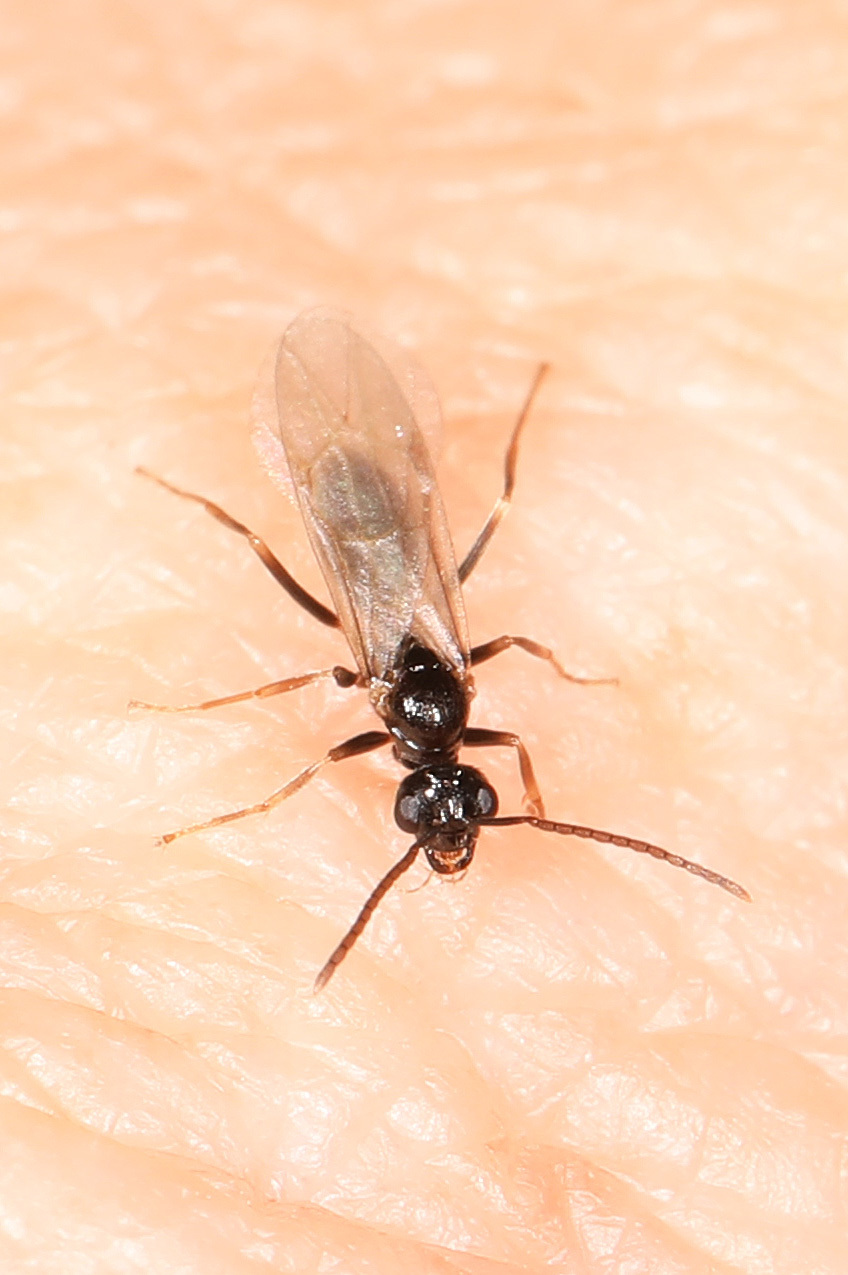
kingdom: Animalia
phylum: Arthropoda
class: Insecta
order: Hymenoptera
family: Formicidae
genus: Prenolepis
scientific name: Prenolepis imparis
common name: Small honey ant
